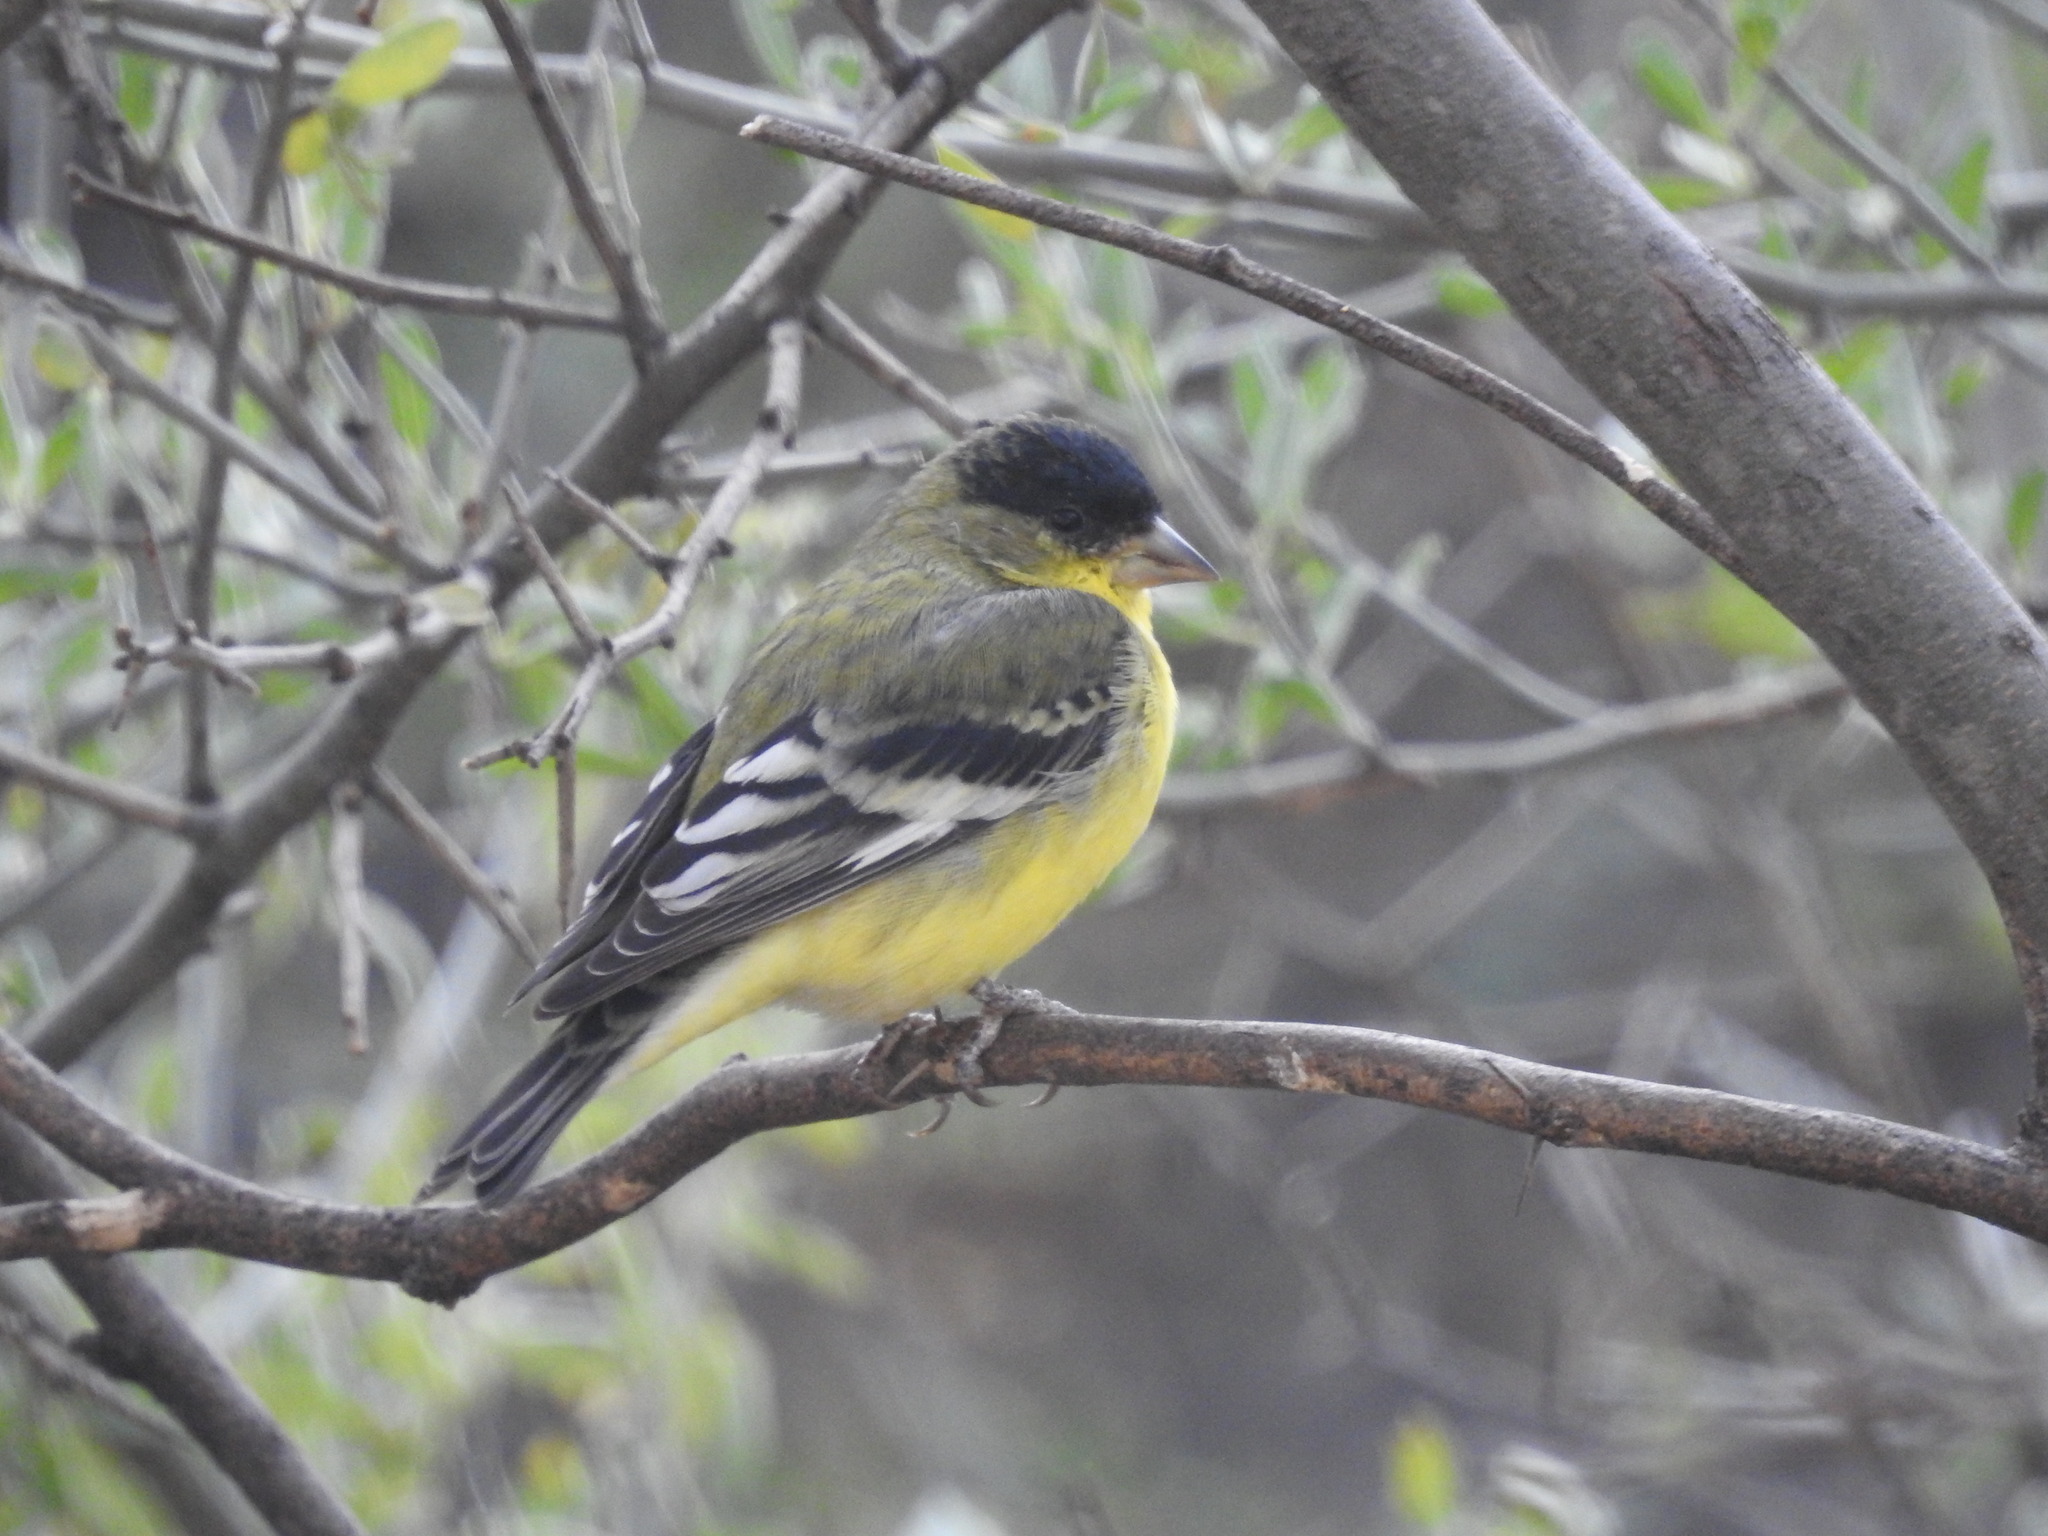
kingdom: Animalia
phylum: Chordata
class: Aves
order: Passeriformes
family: Fringillidae
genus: Spinus
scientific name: Spinus psaltria
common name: Lesser goldfinch
